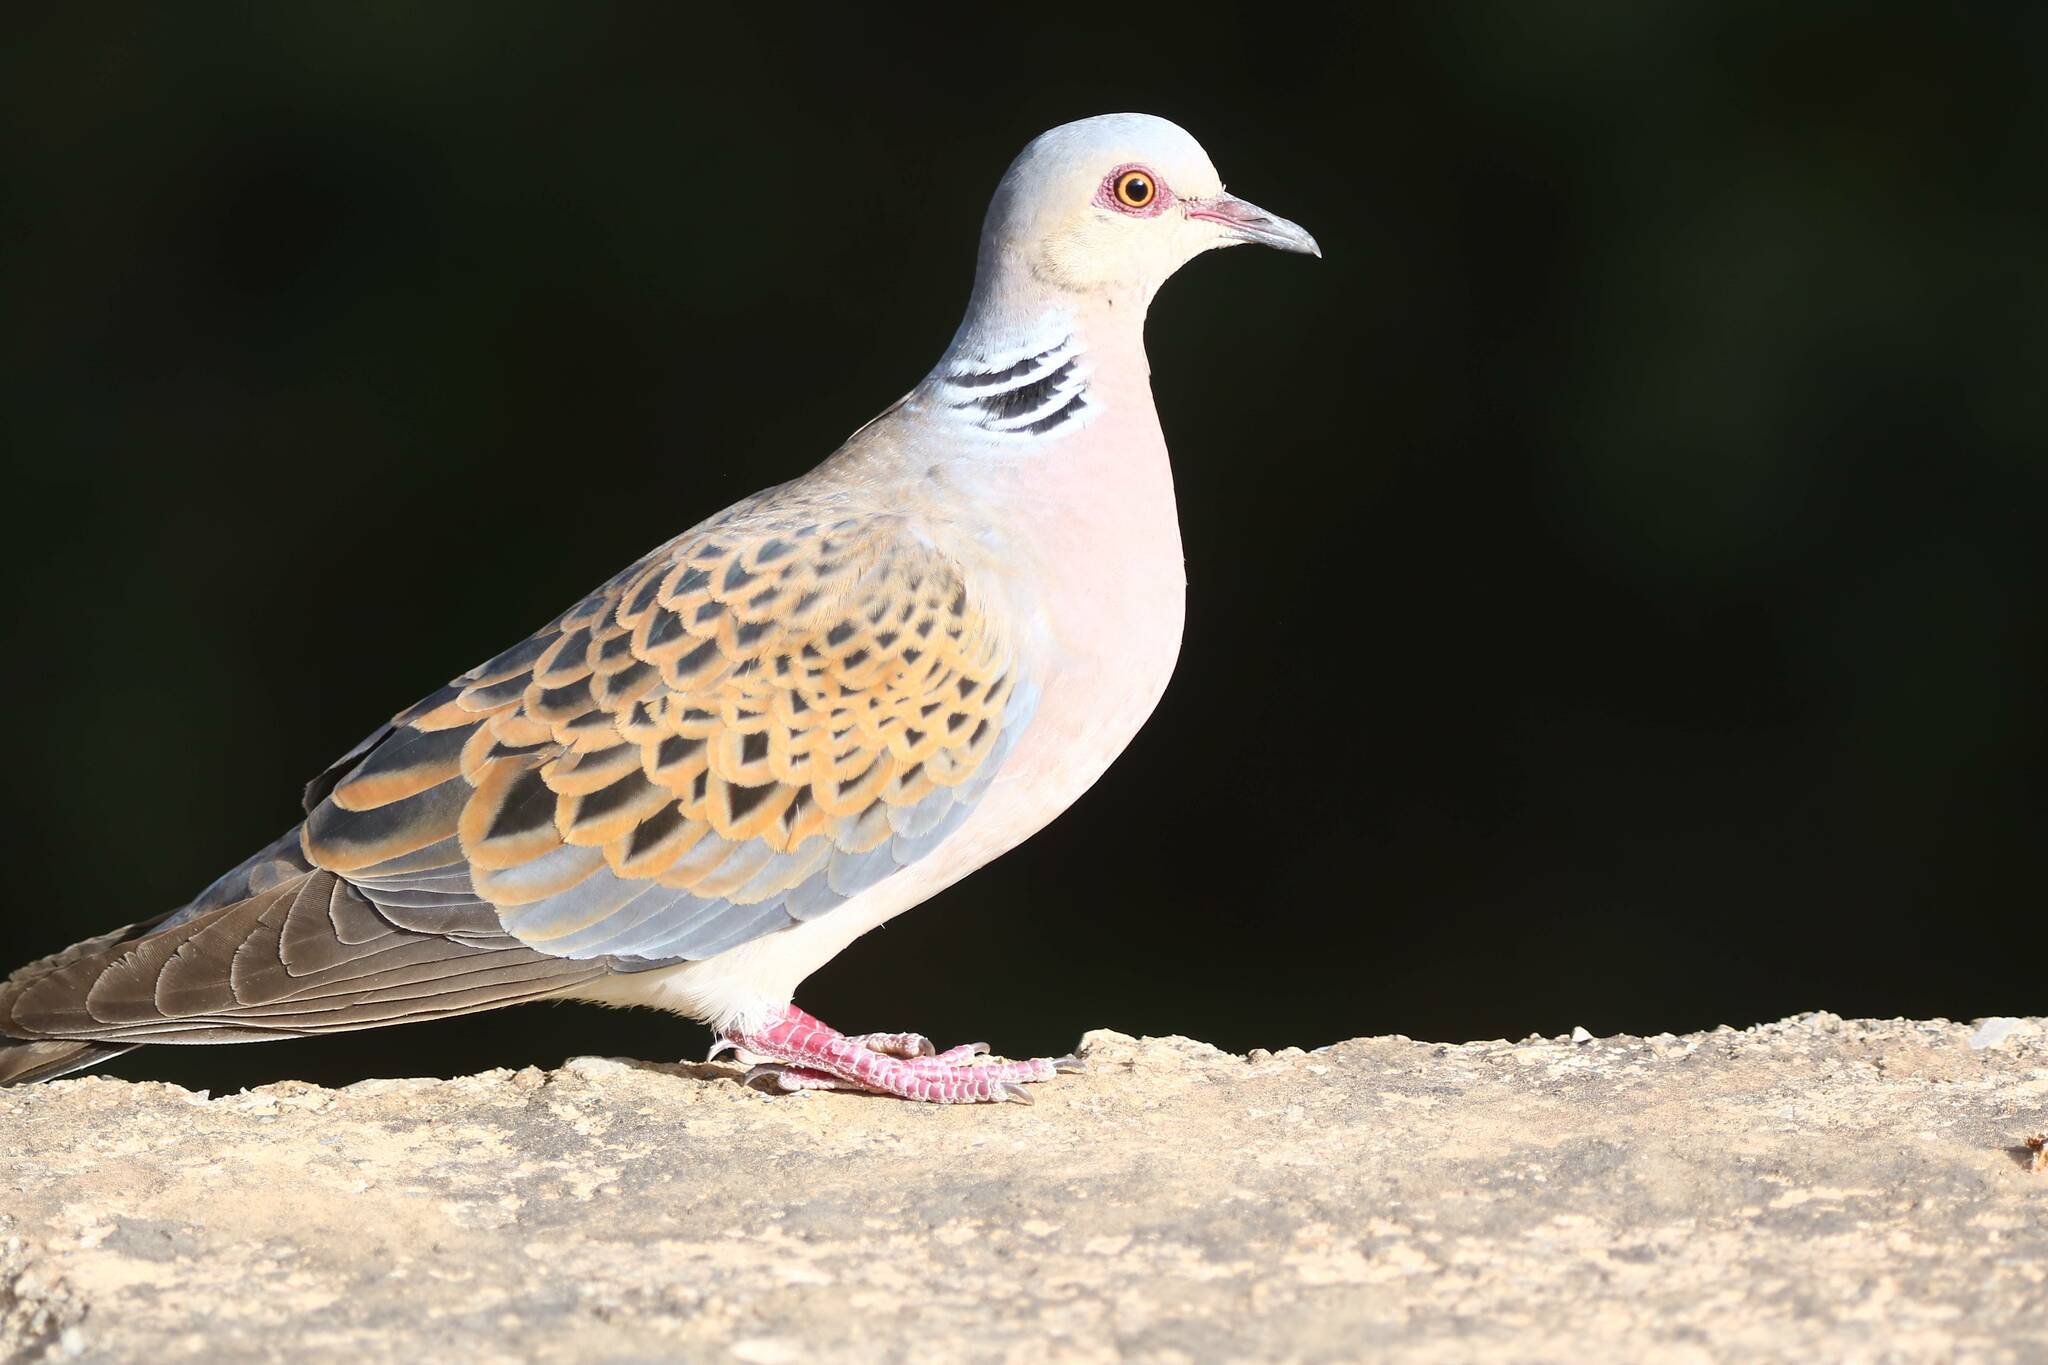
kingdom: Animalia
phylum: Chordata
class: Aves
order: Columbiformes
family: Columbidae
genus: Streptopelia
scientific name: Streptopelia turtur
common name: European turtle dove
